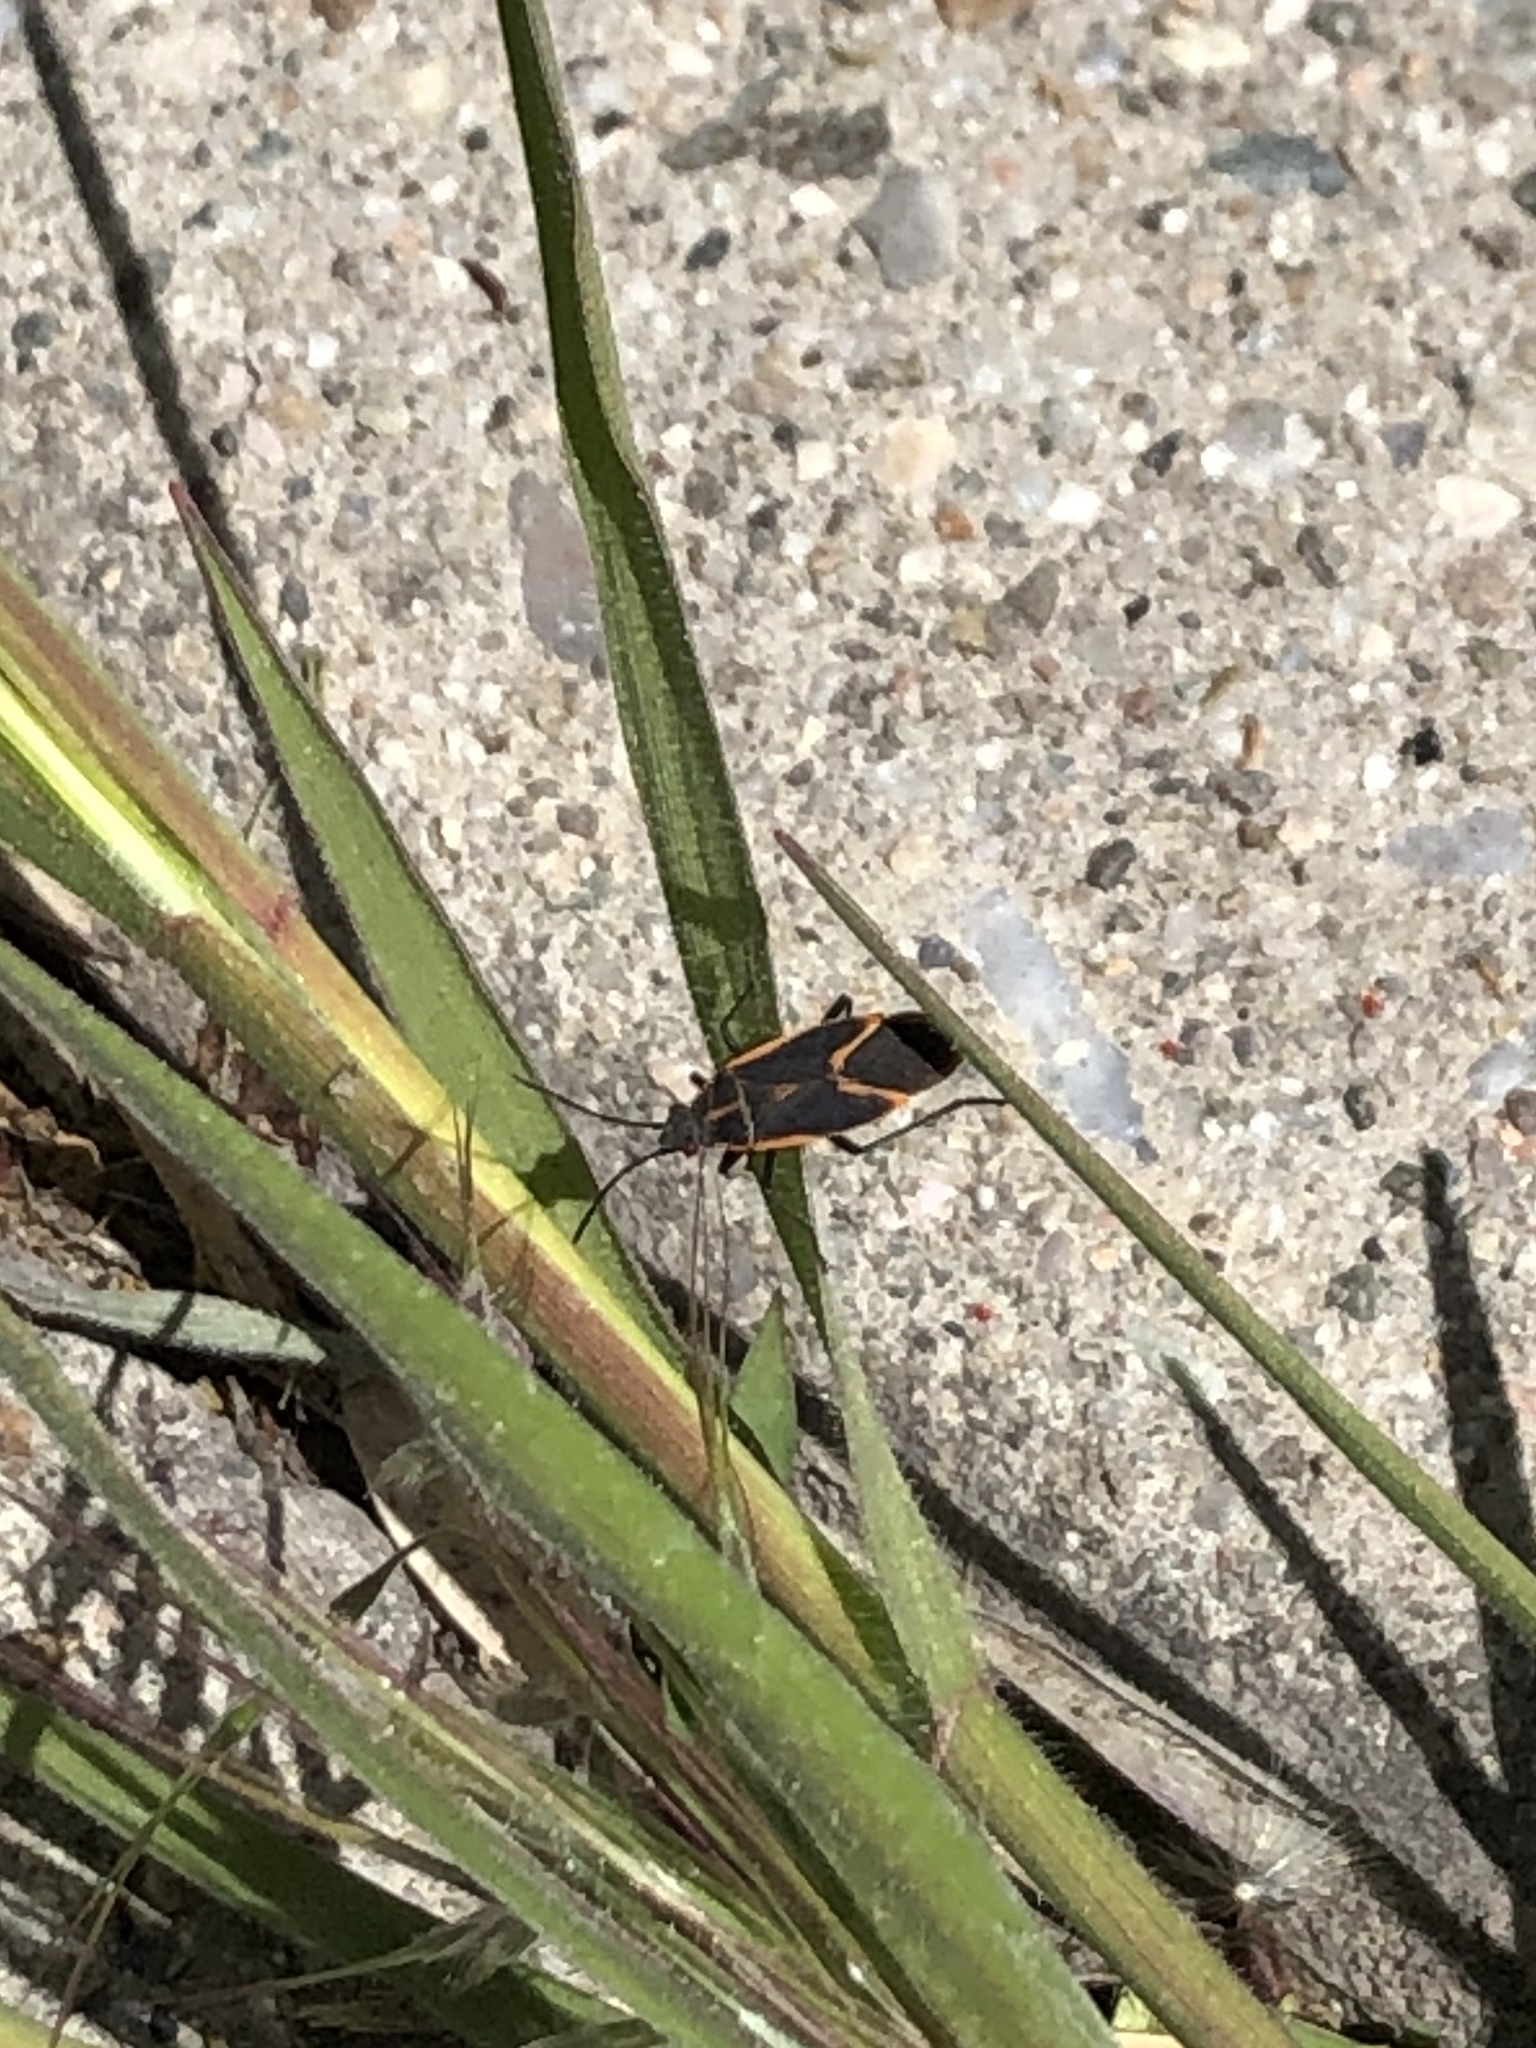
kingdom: Animalia
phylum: Arthropoda
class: Insecta
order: Hemiptera
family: Rhopalidae
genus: Boisea
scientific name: Boisea trivittata
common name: Boxelder bug
